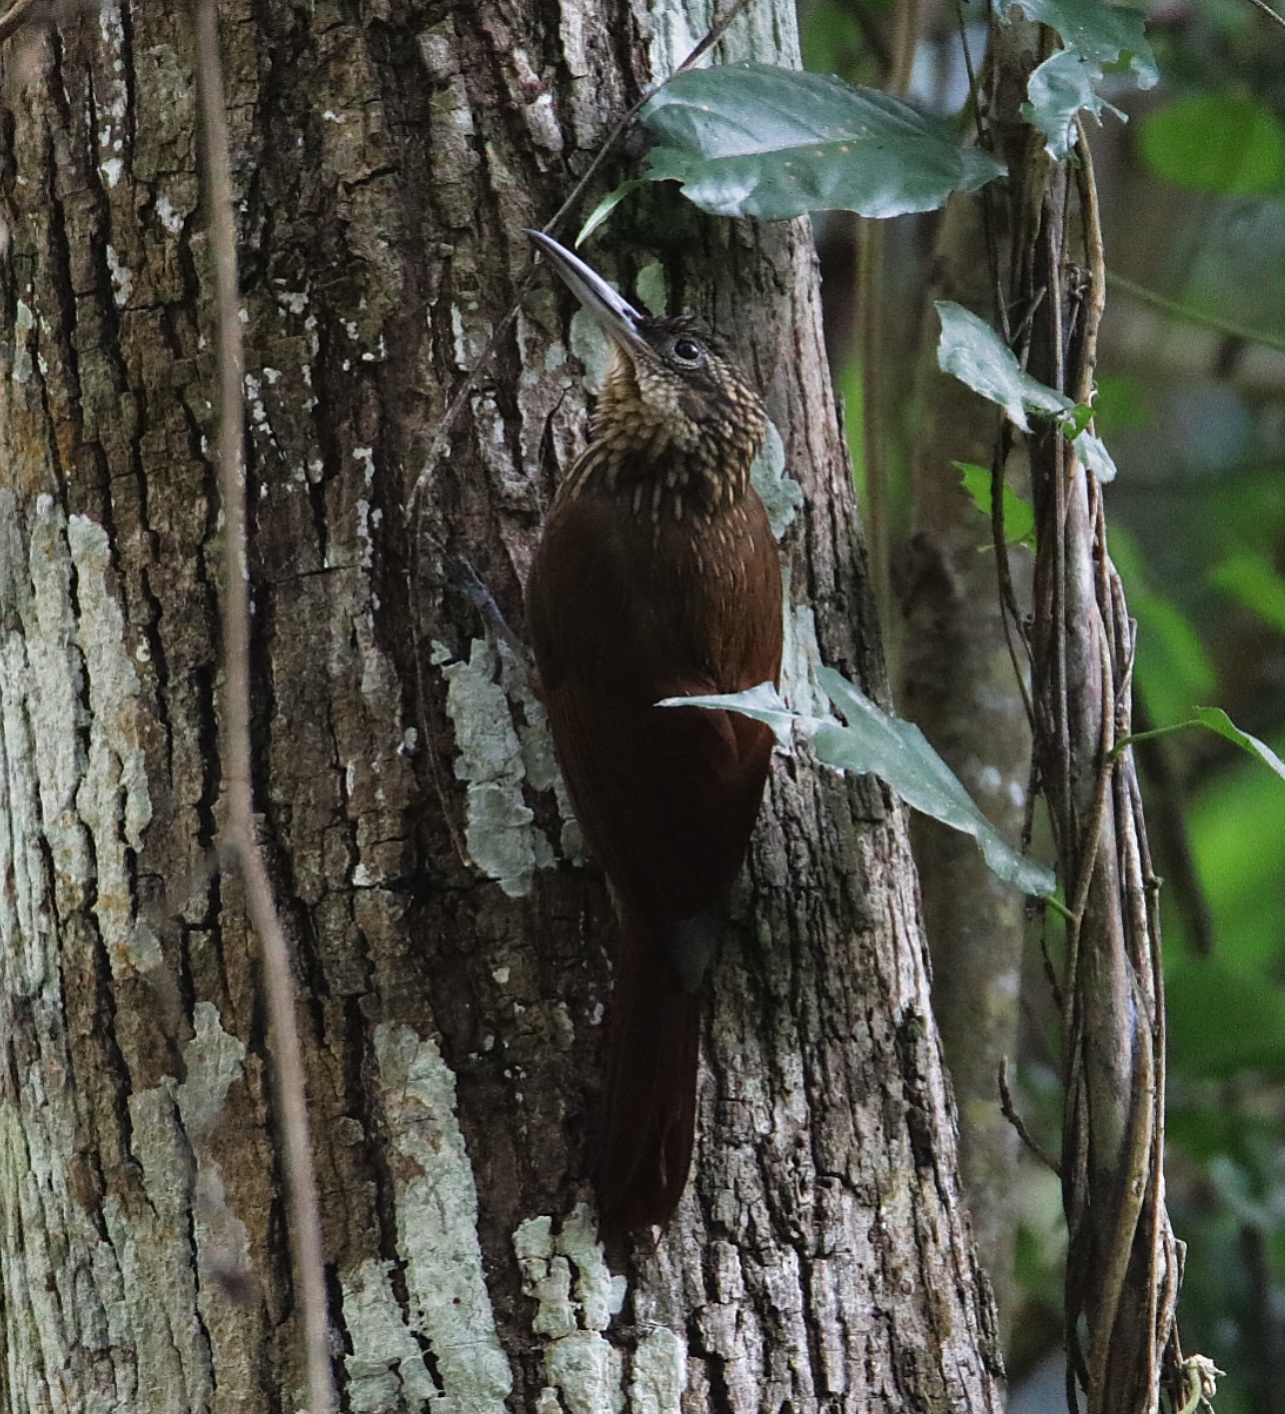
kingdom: Animalia
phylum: Chordata
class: Aves
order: Passeriformes
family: Furnariidae
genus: Xiphorhynchus
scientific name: Xiphorhynchus susurrans
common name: Cocoa woodcreeper
